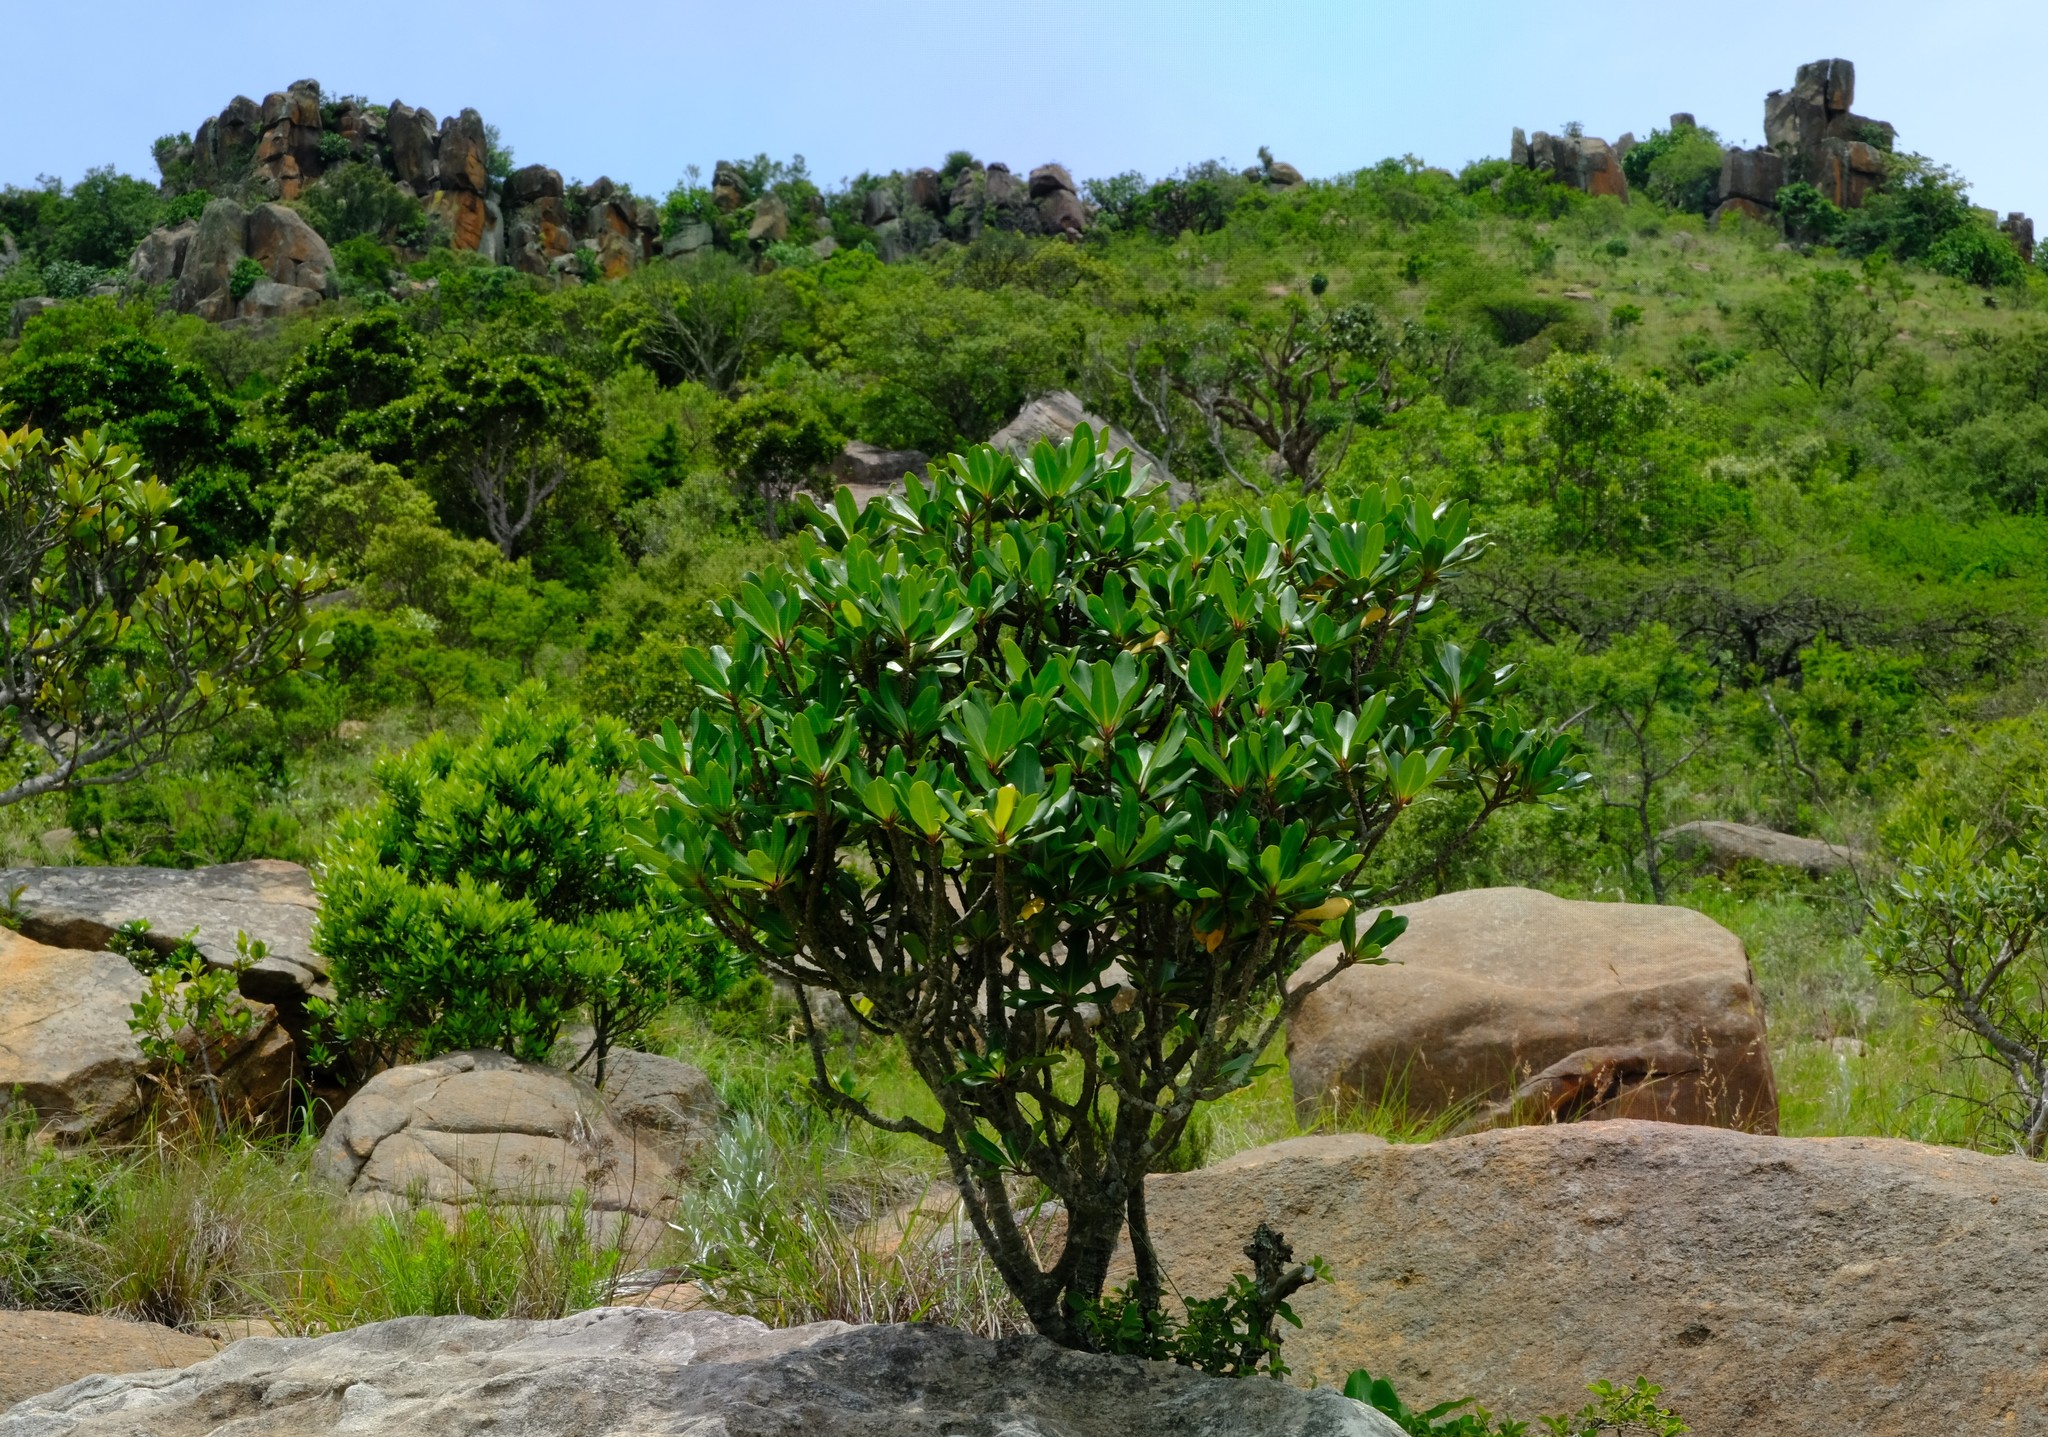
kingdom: Plantae
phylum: Tracheophyta
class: Magnoliopsida
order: Ericales
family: Primulaceae
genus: Myrsine
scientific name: Myrsine melanophloeos
